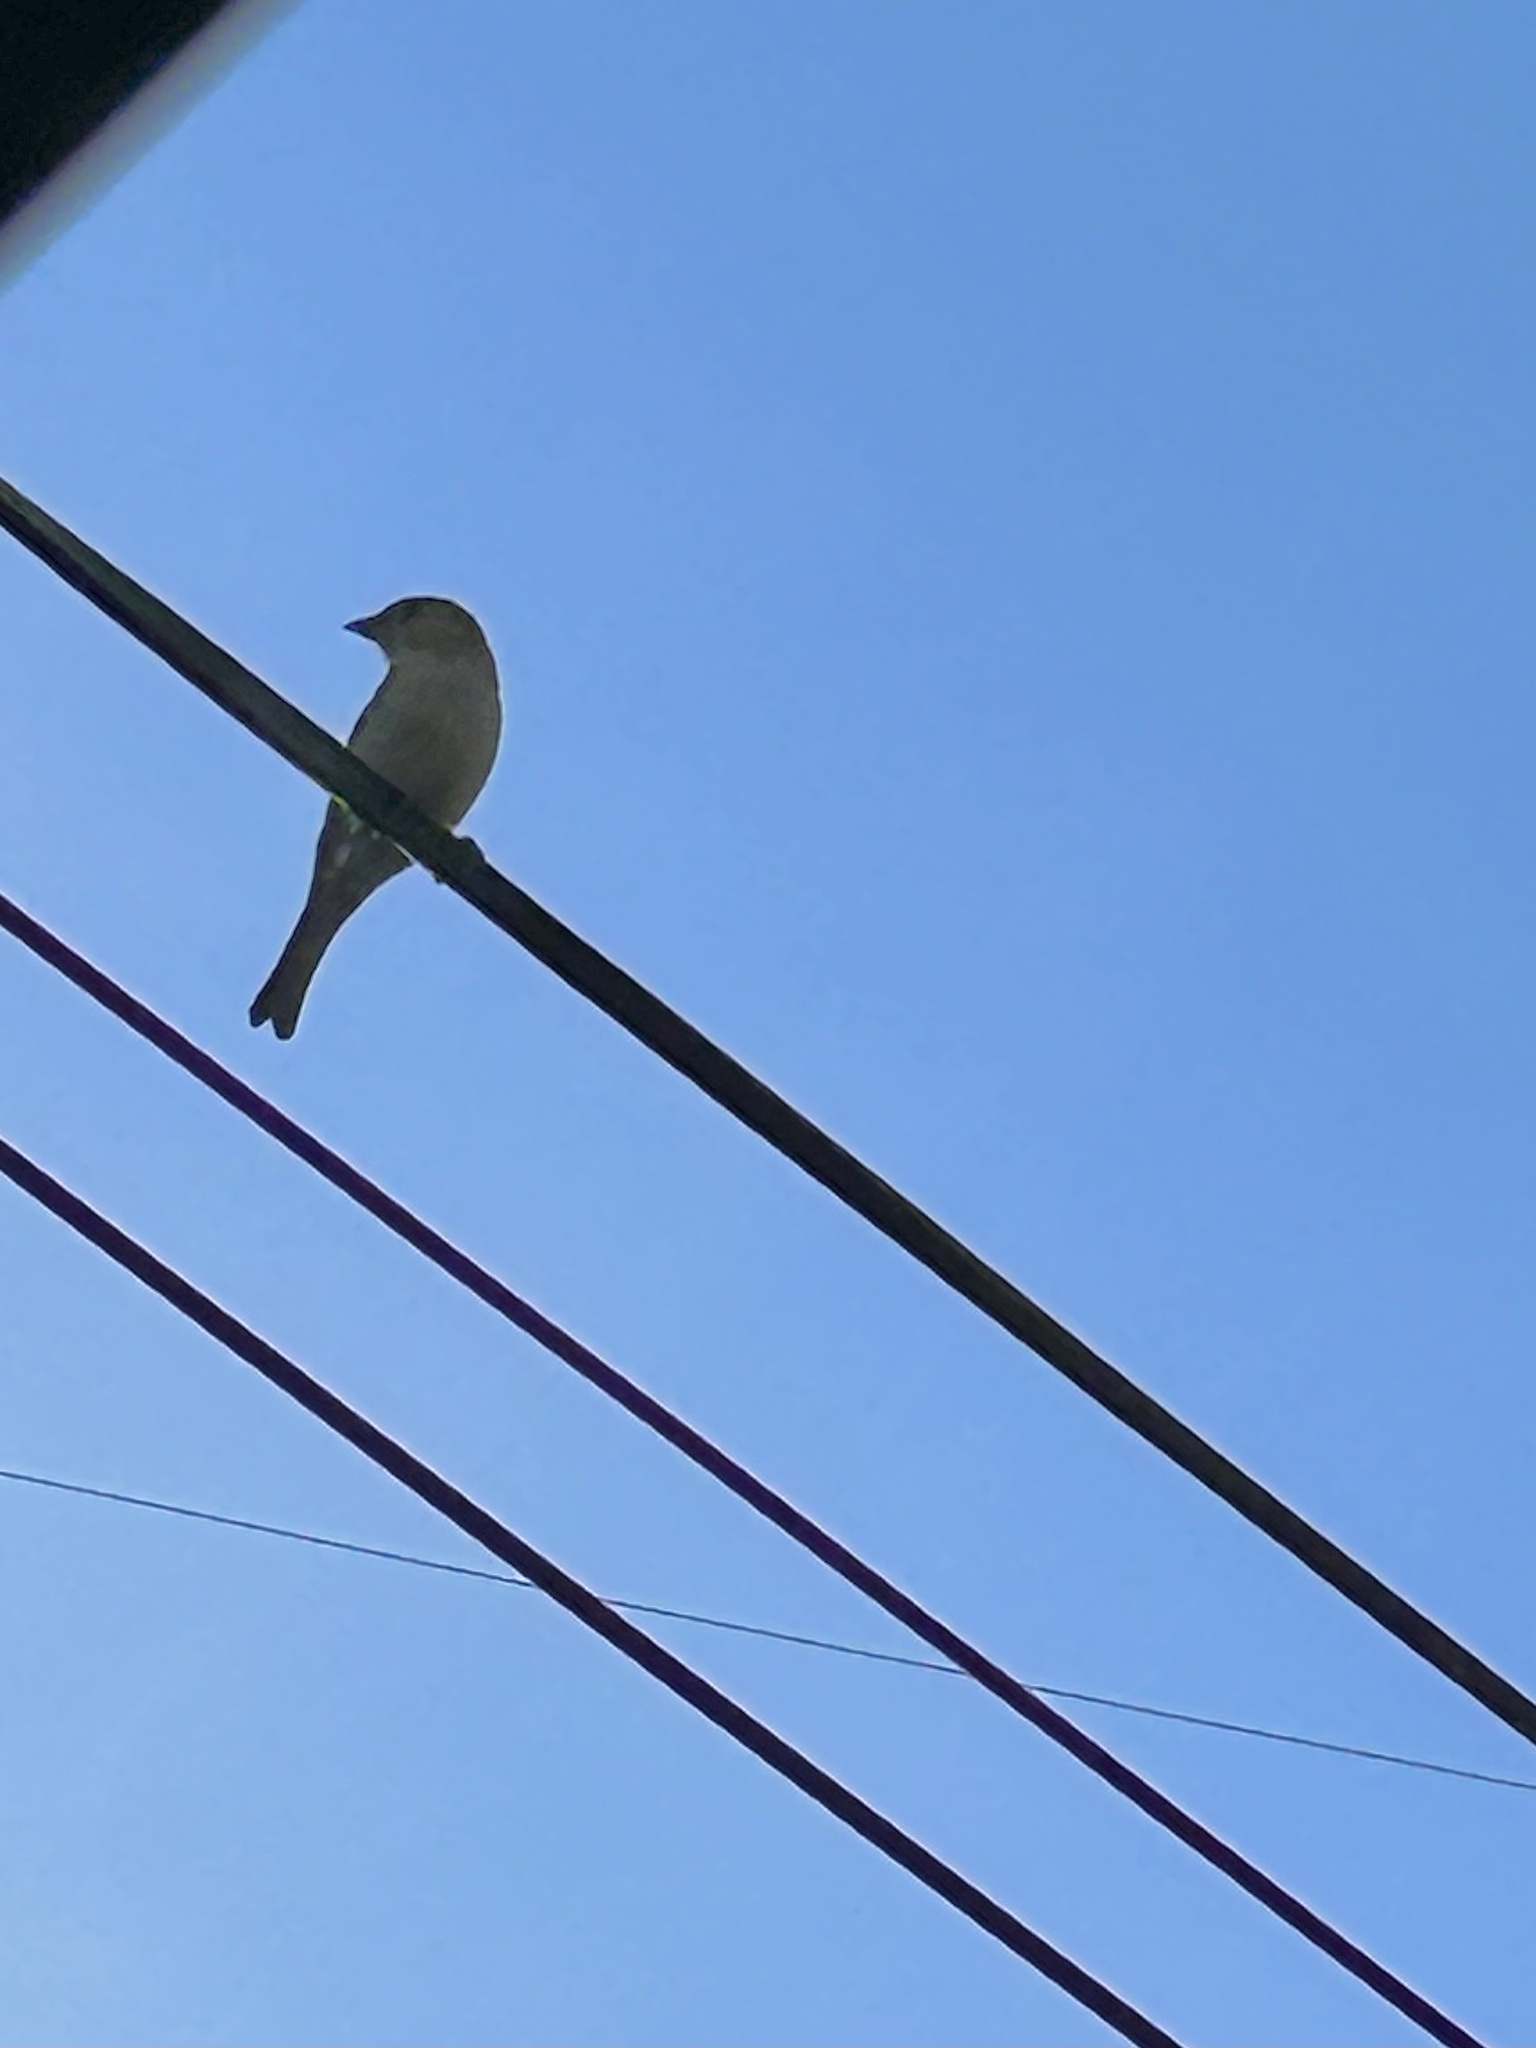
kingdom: Animalia
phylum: Chordata
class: Aves
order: Passeriformes
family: Passeridae
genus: Passer
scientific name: Passer domesticus
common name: House sparrow
